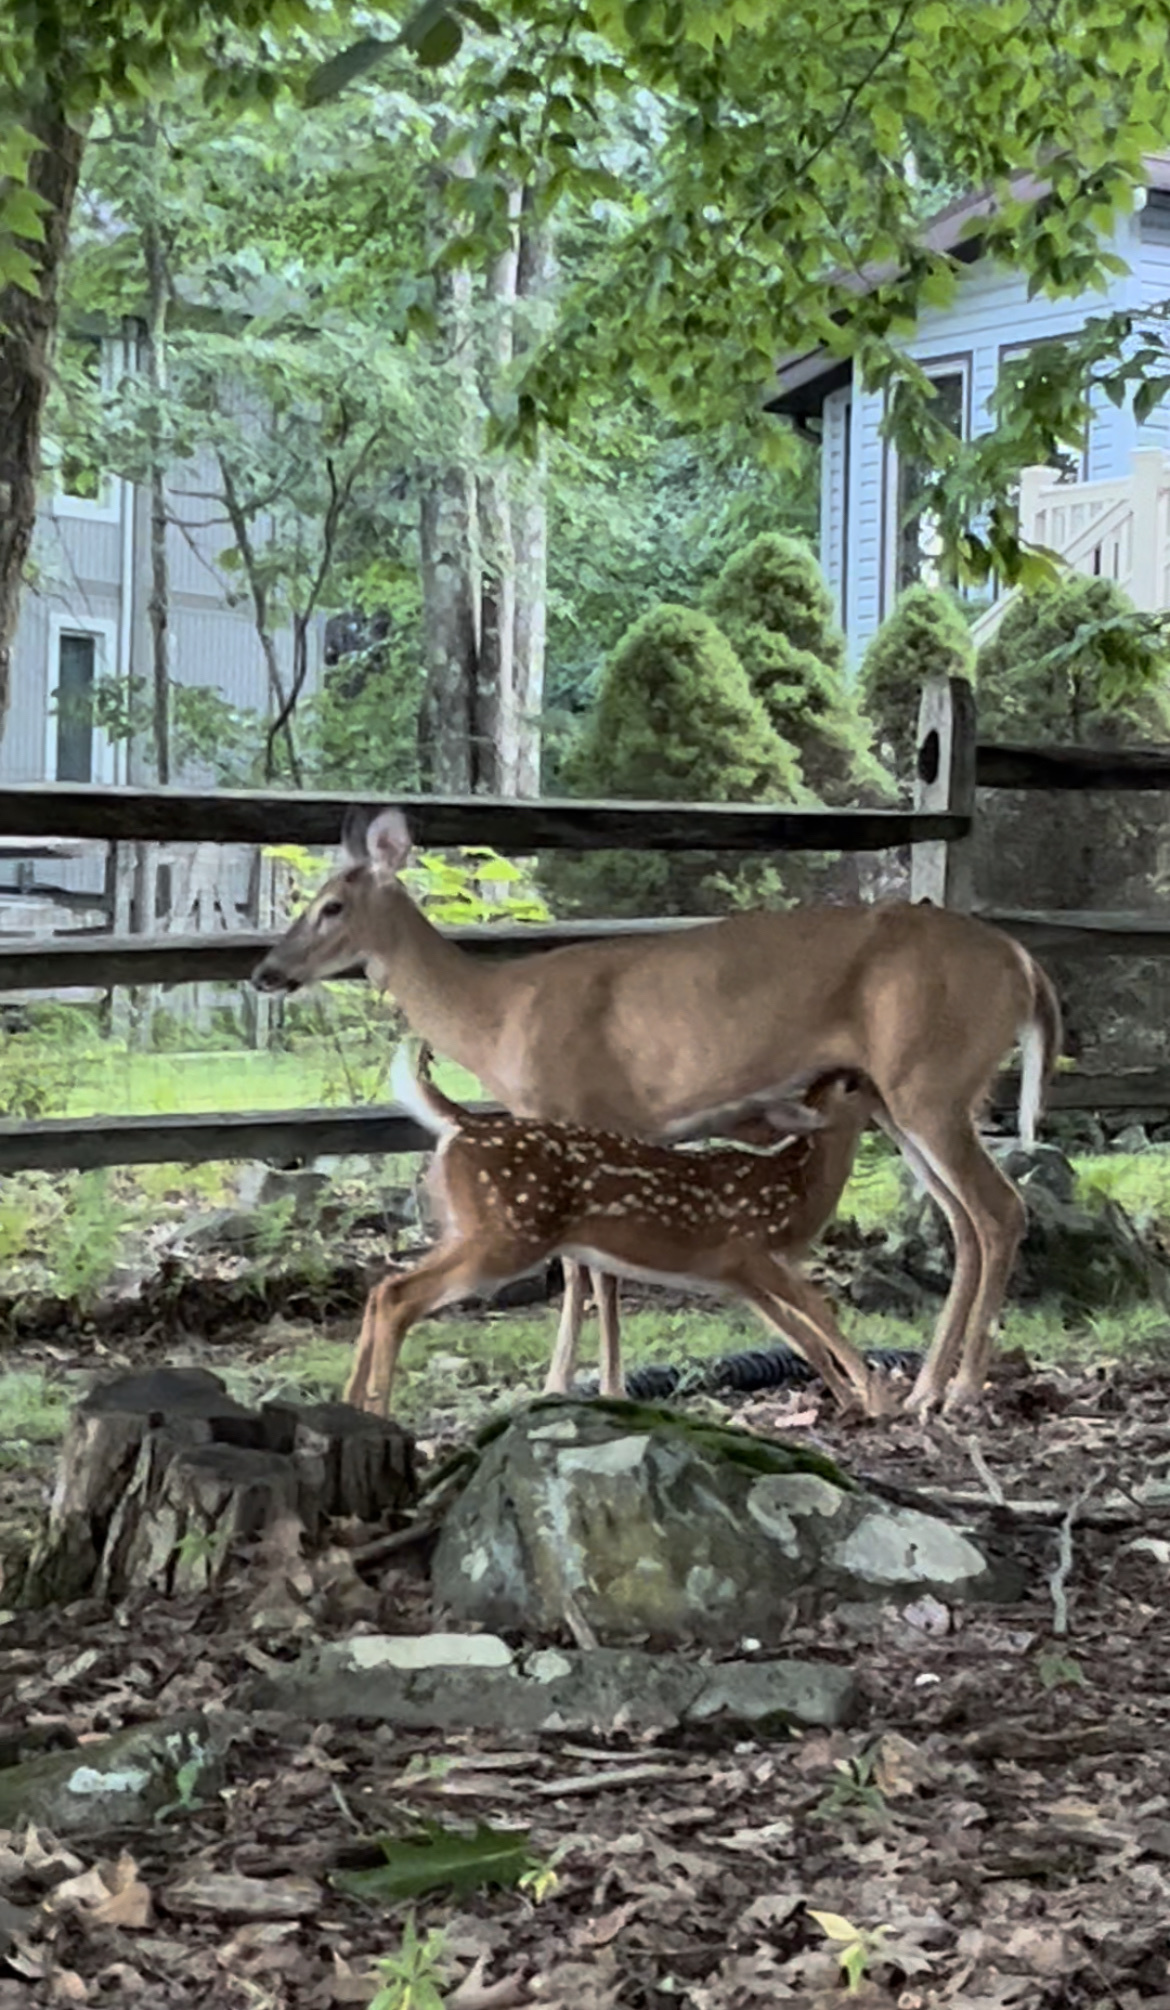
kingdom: Animalia
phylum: Chordata
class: Mammalia
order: Artiodactyla
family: Cervidae
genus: Odocoileus
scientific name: Odocoileus virginianus
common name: White-tailed deer
